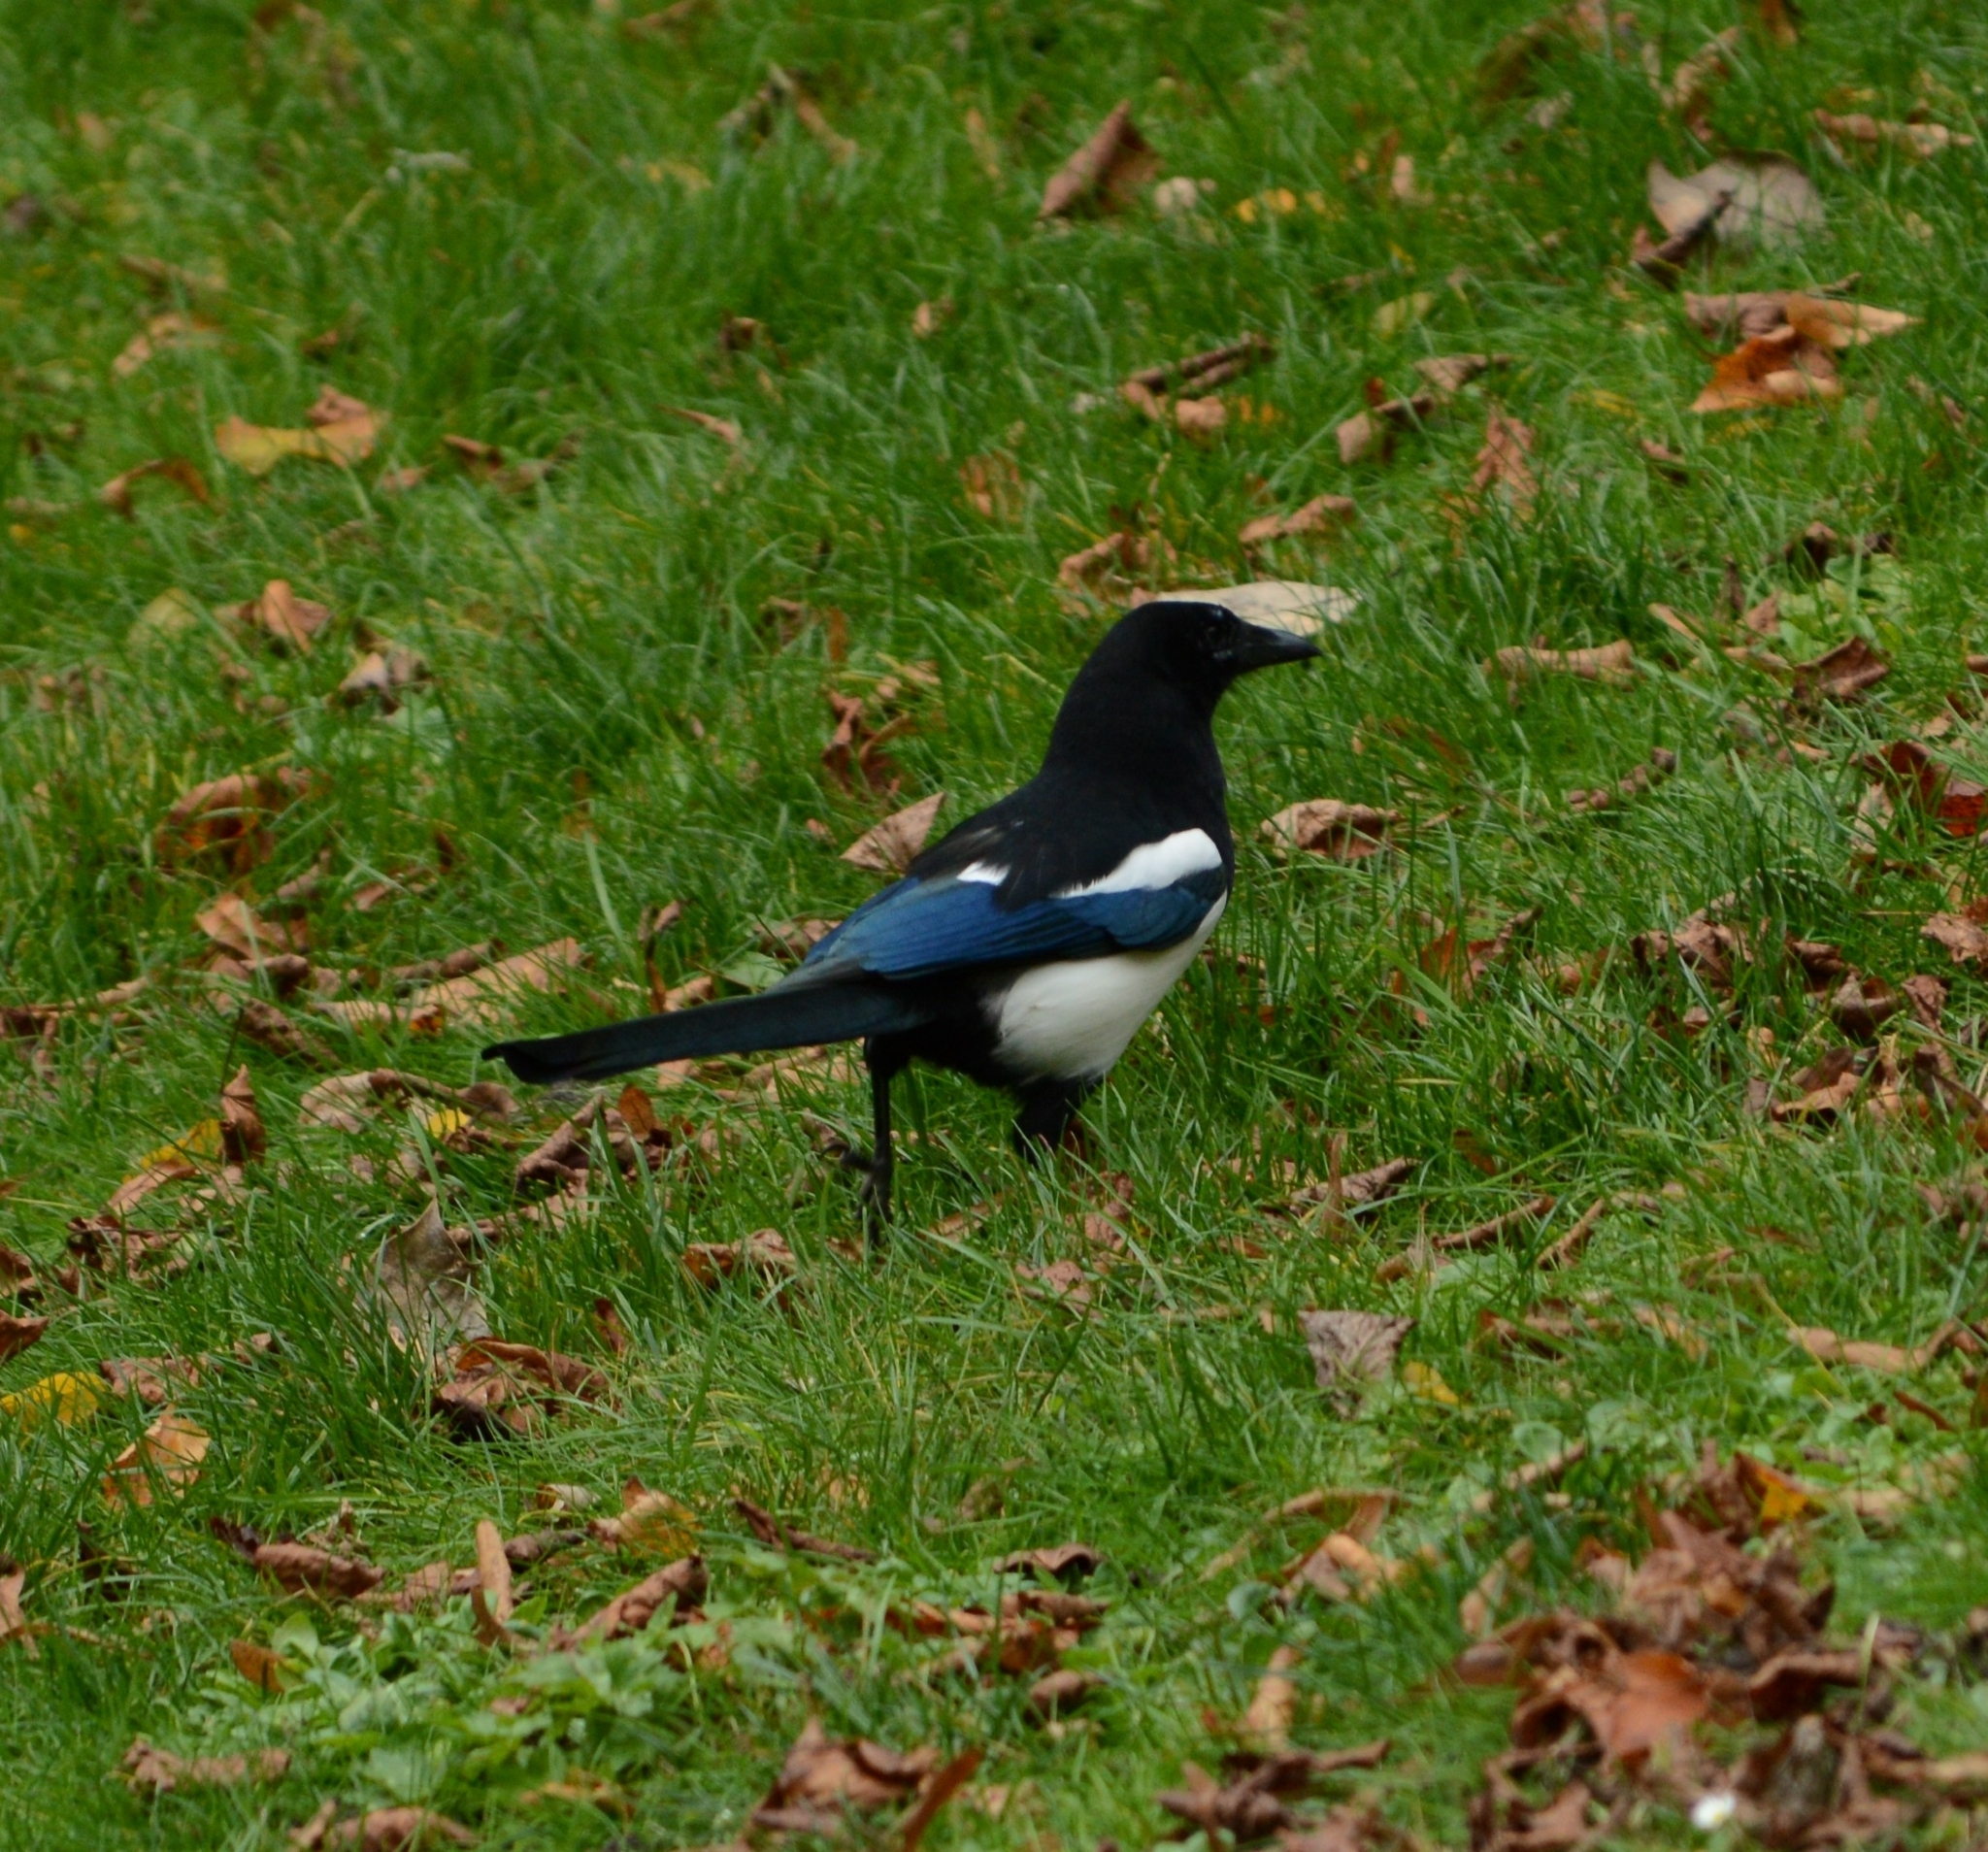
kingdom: Animalia
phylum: Chordata
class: Aves
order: Passeriformes
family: Corvidae
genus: Pica
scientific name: Pica pica
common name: Eurasian magpie
